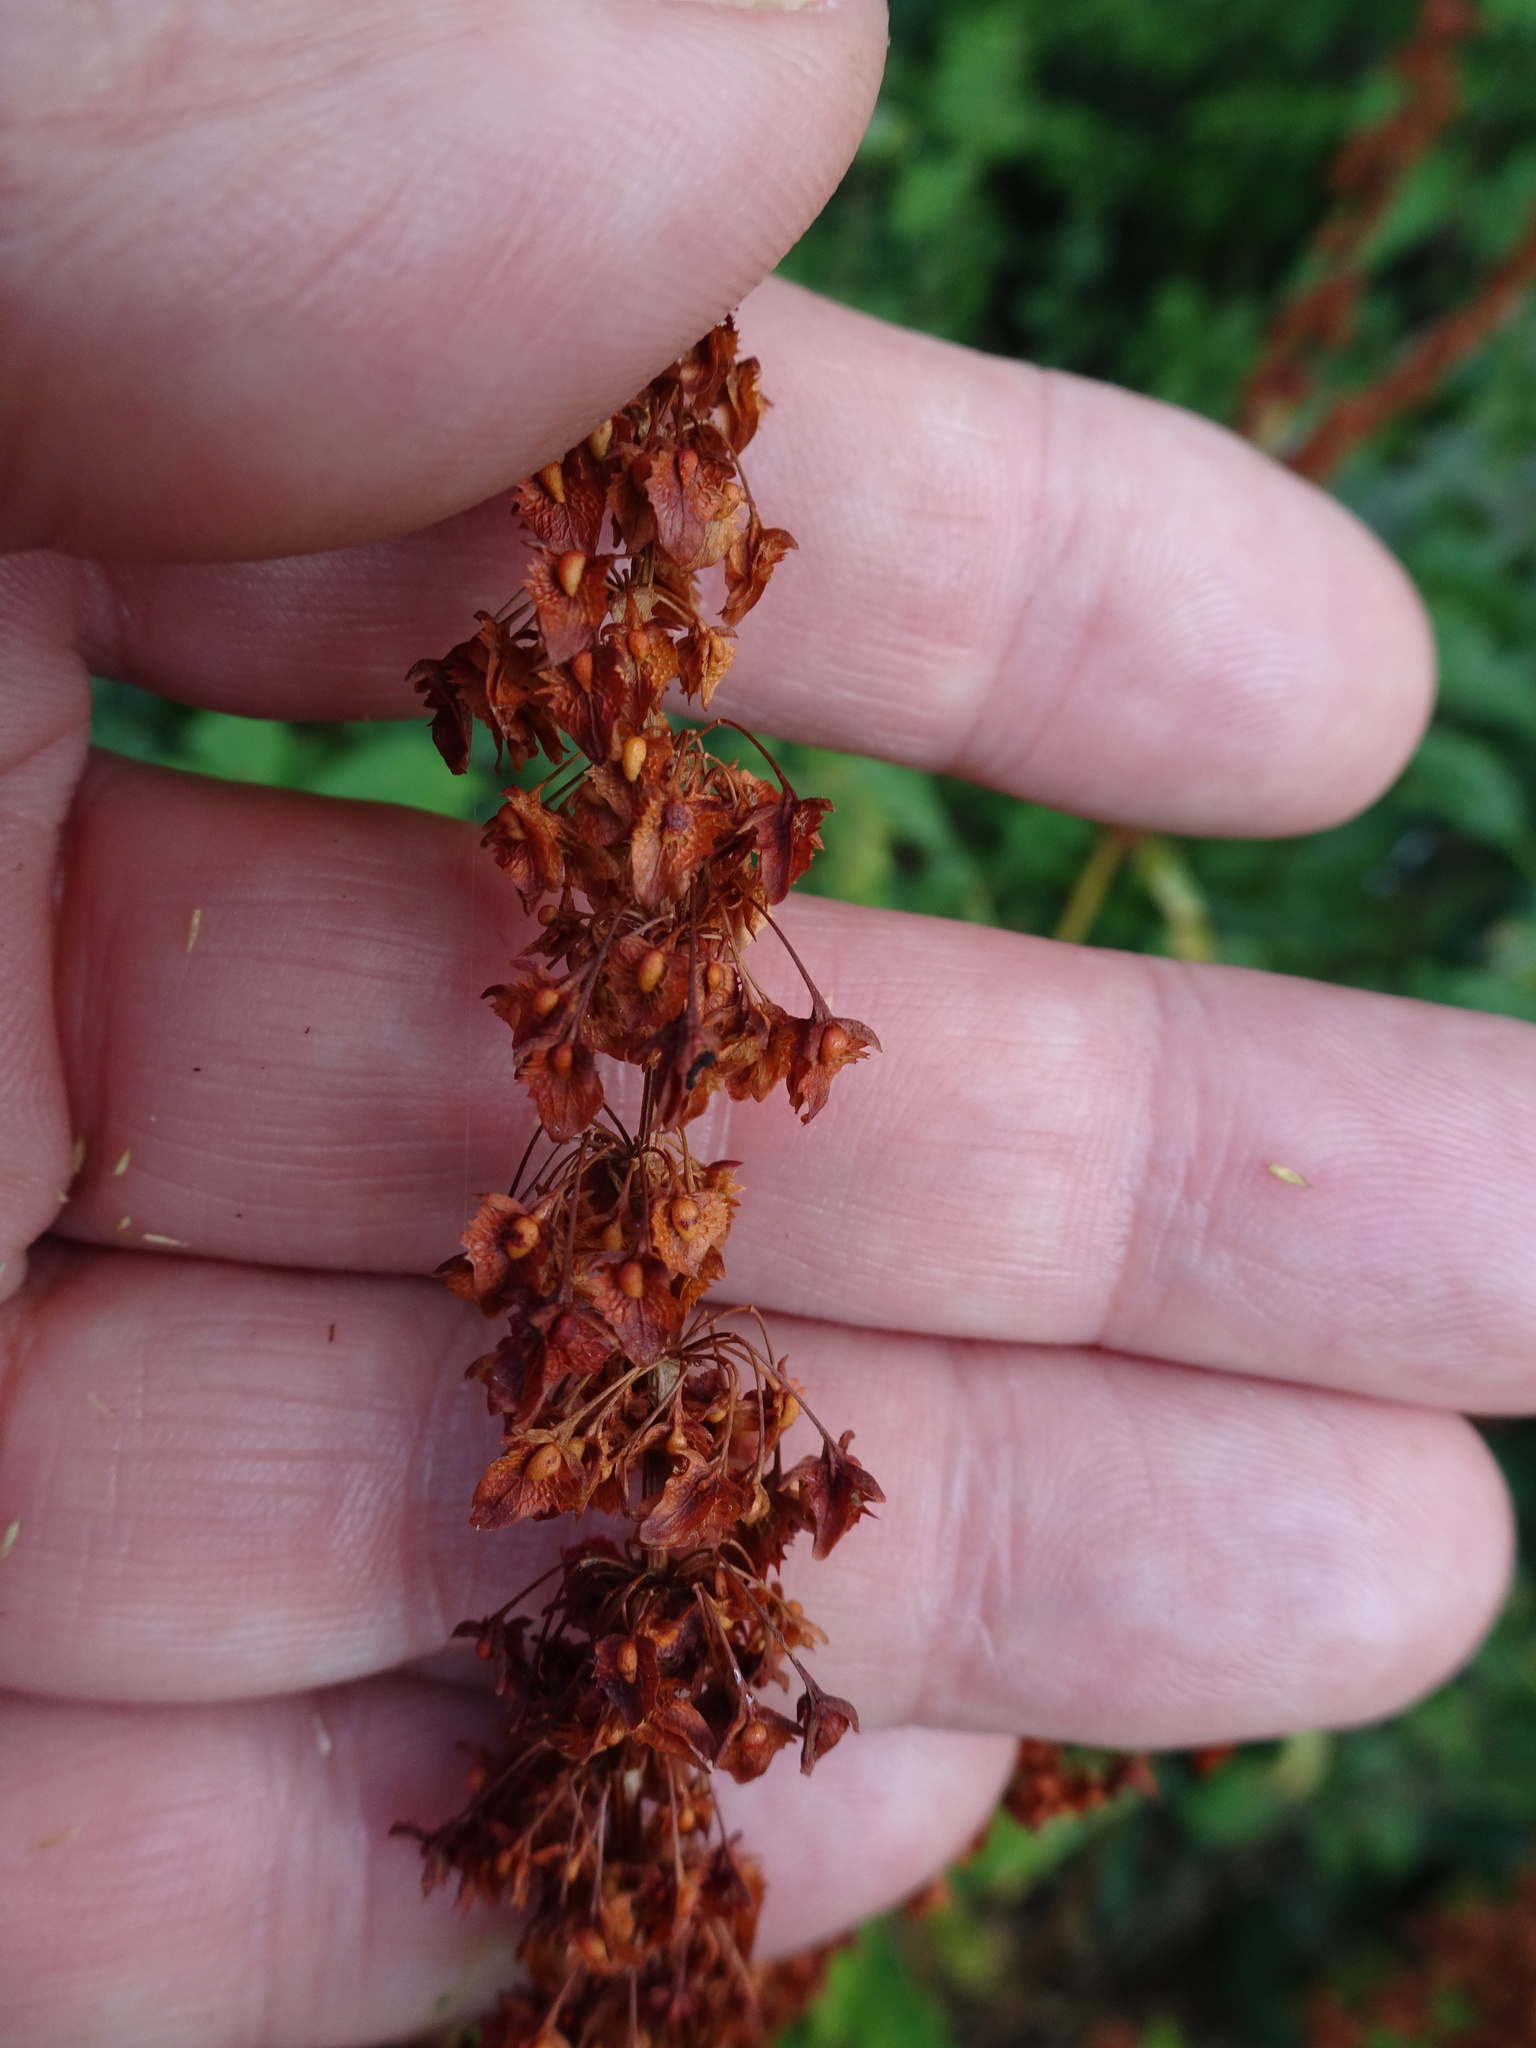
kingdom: Plantae
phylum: Tracheophyta
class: Magnoliopsida
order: Caryophyllales
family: Polygonaceae
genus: Rumex
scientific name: Rumex obtusifolius
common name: Bitter dock
